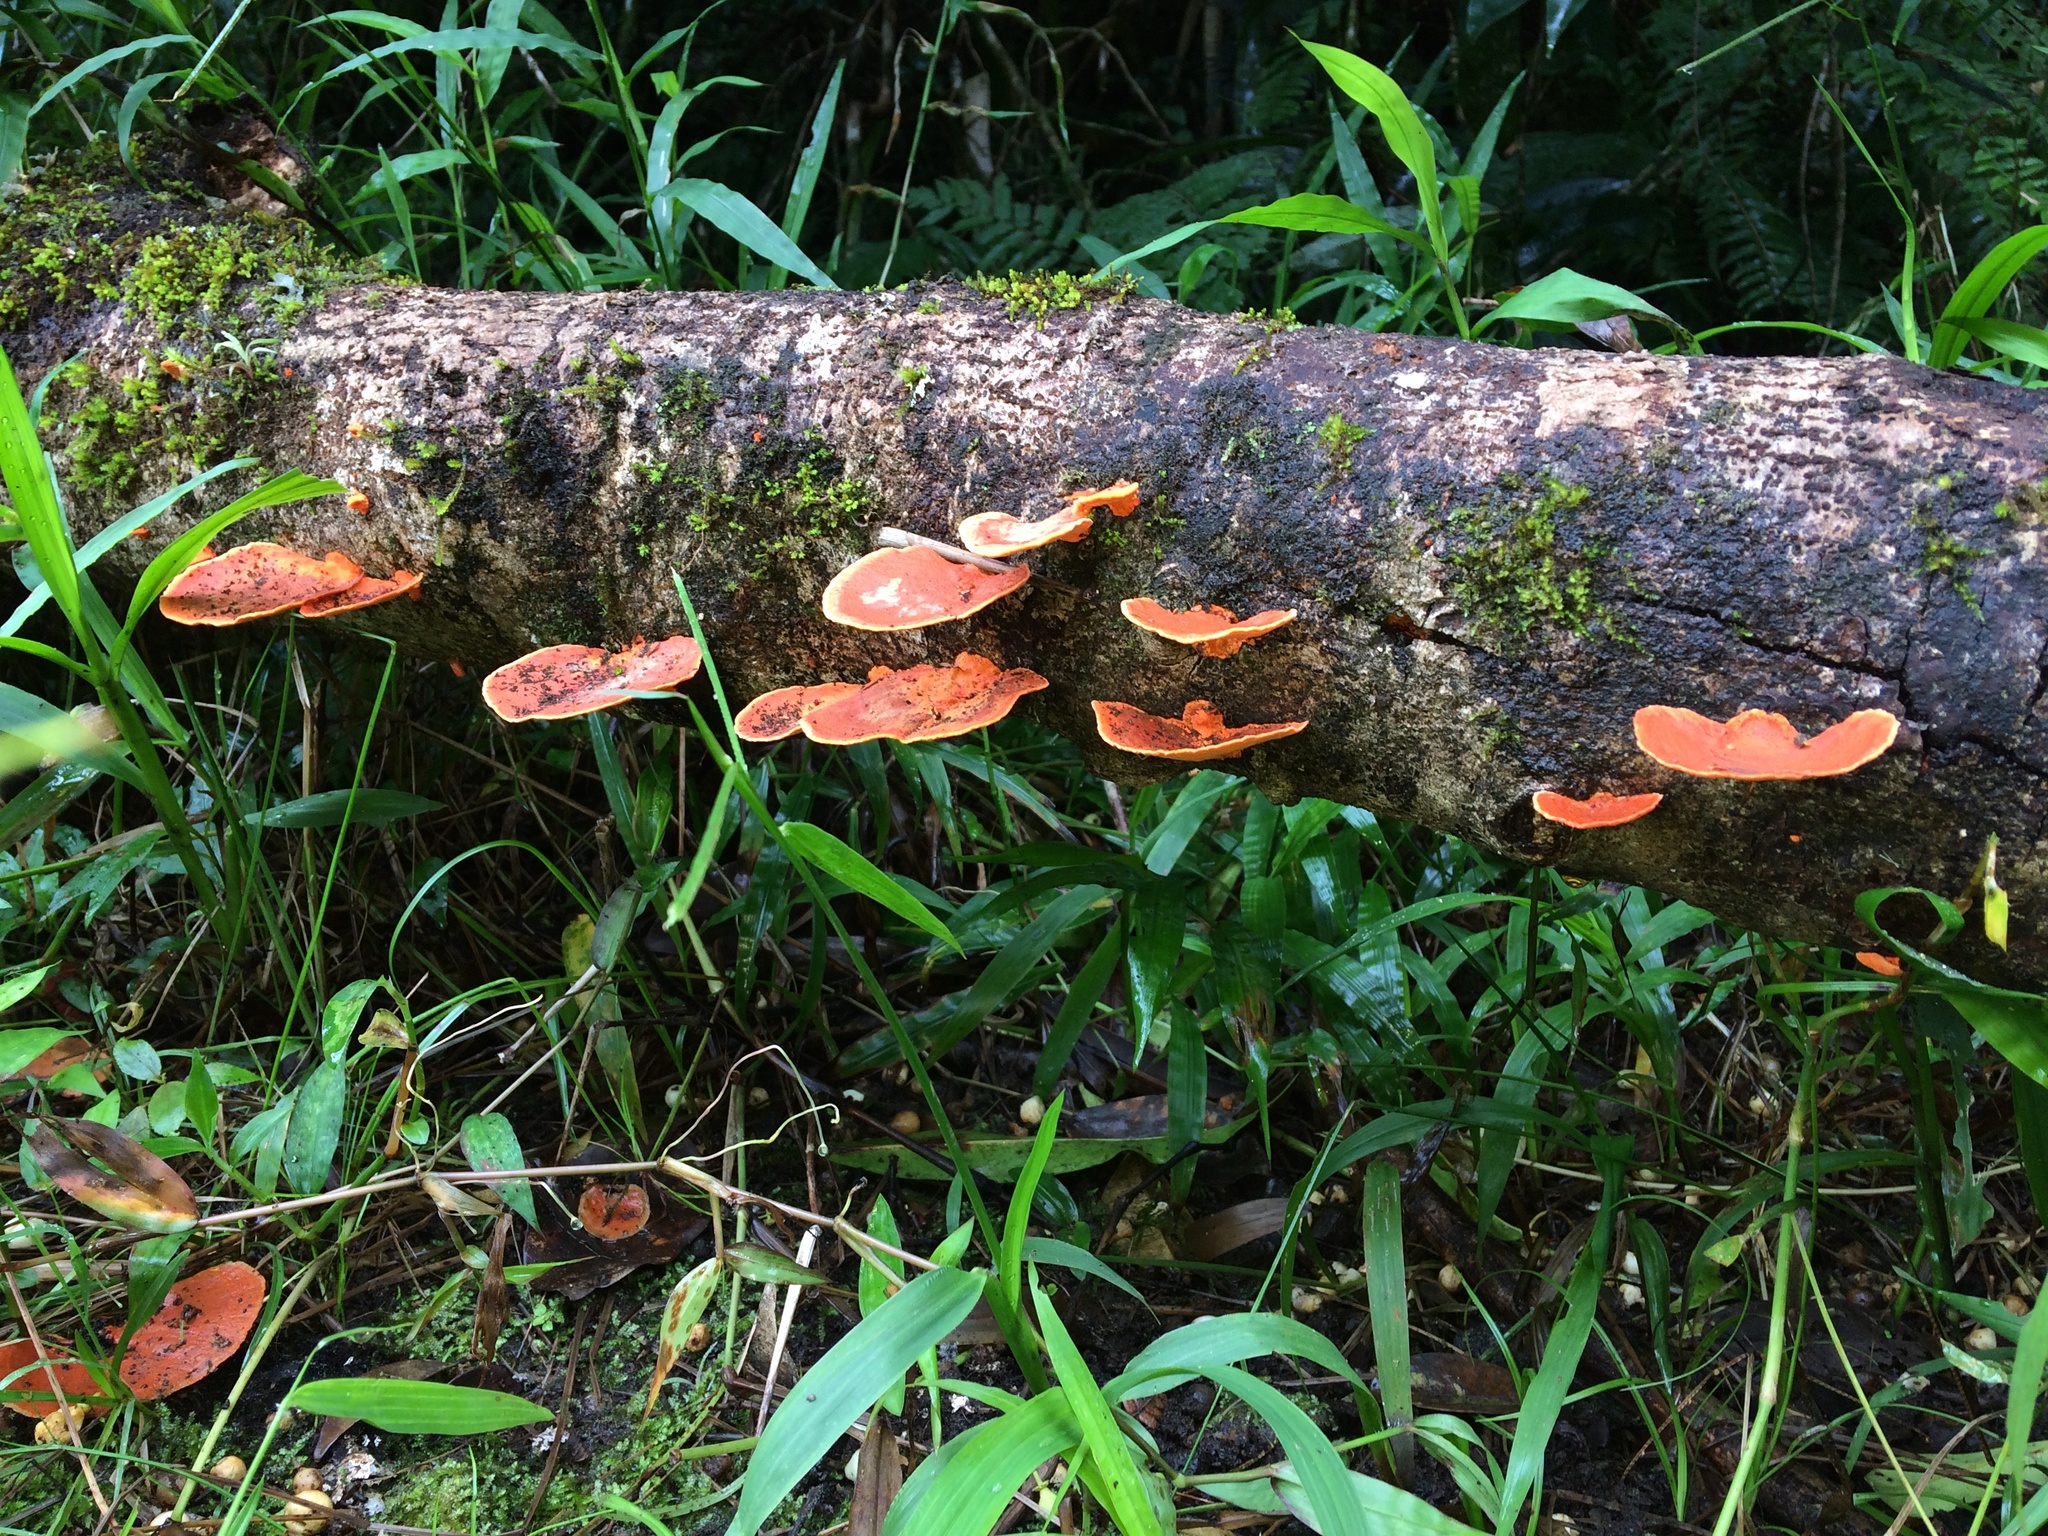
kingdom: Fungi
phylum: Basidiomycota
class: Agaricomycetes
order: Polyporales
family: Polyporaceae
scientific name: Polyporaceae
